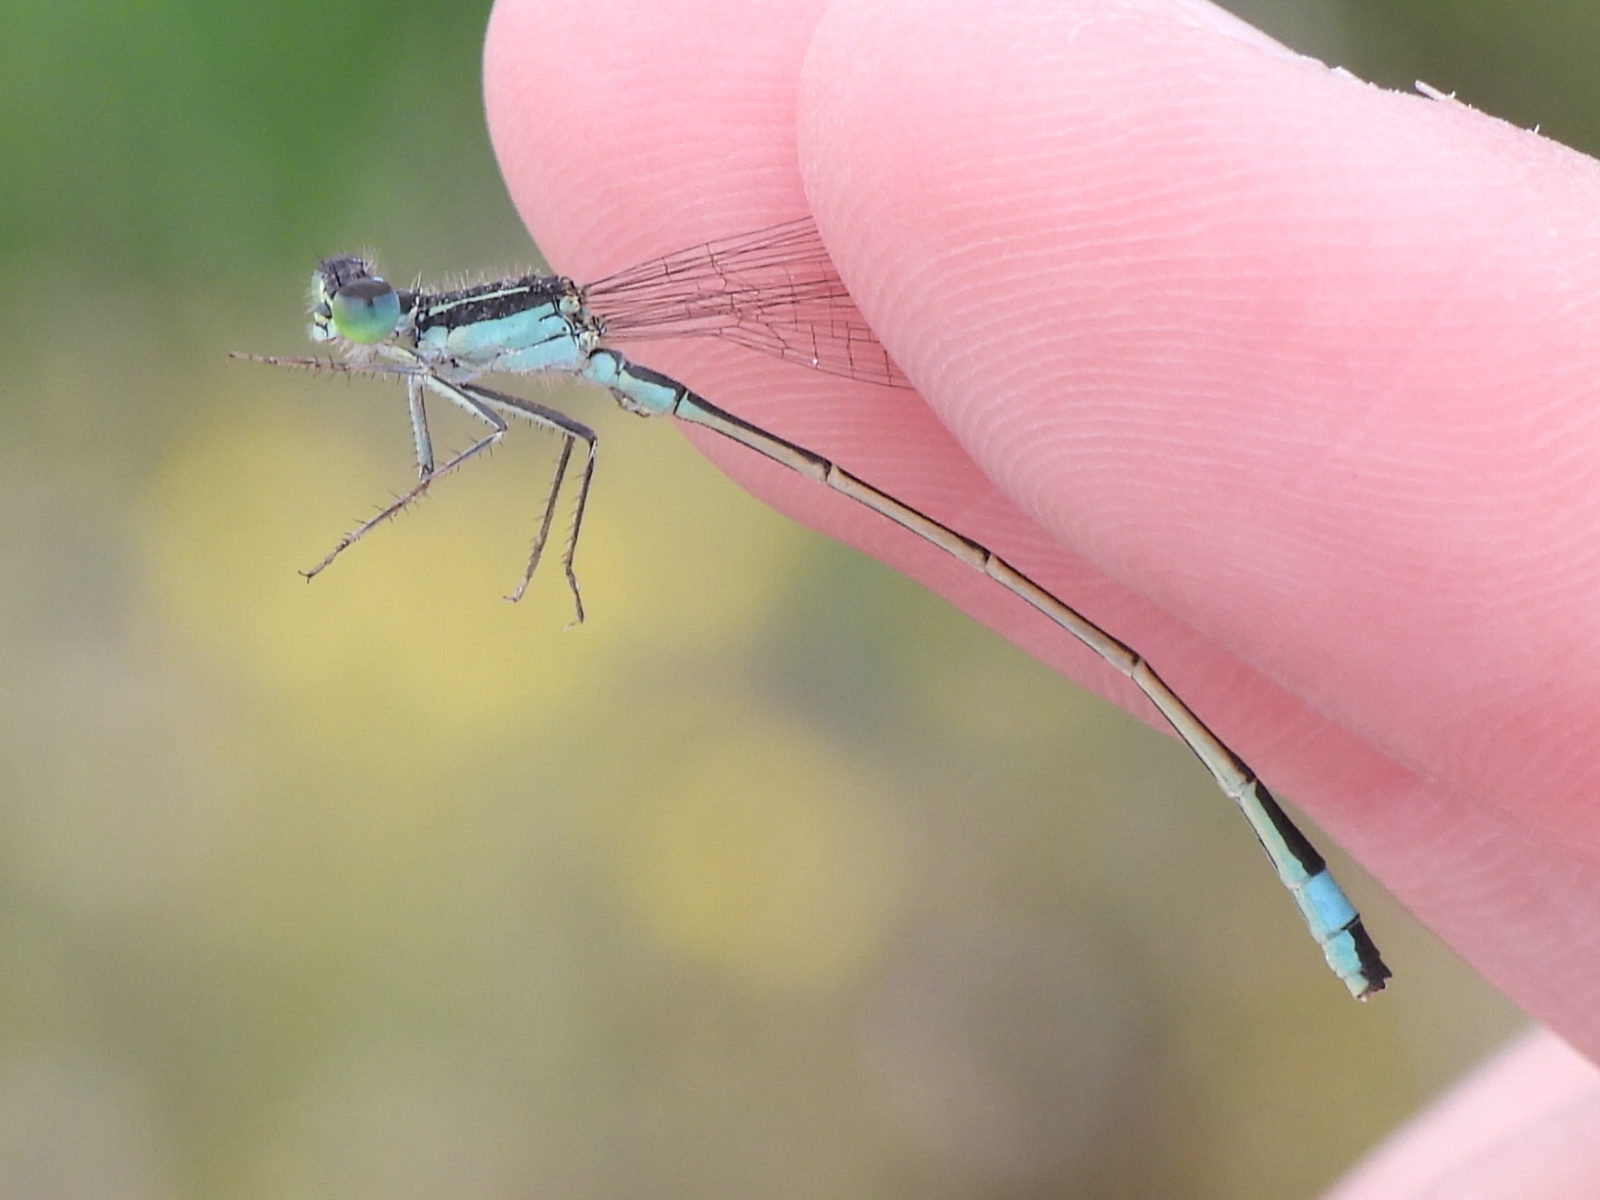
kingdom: Animalia
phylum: Arthropoda
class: Insecta
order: Odonata
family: Coenagrionidae
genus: Ischnura
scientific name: Ischnura evansi
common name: Desert bluetail
